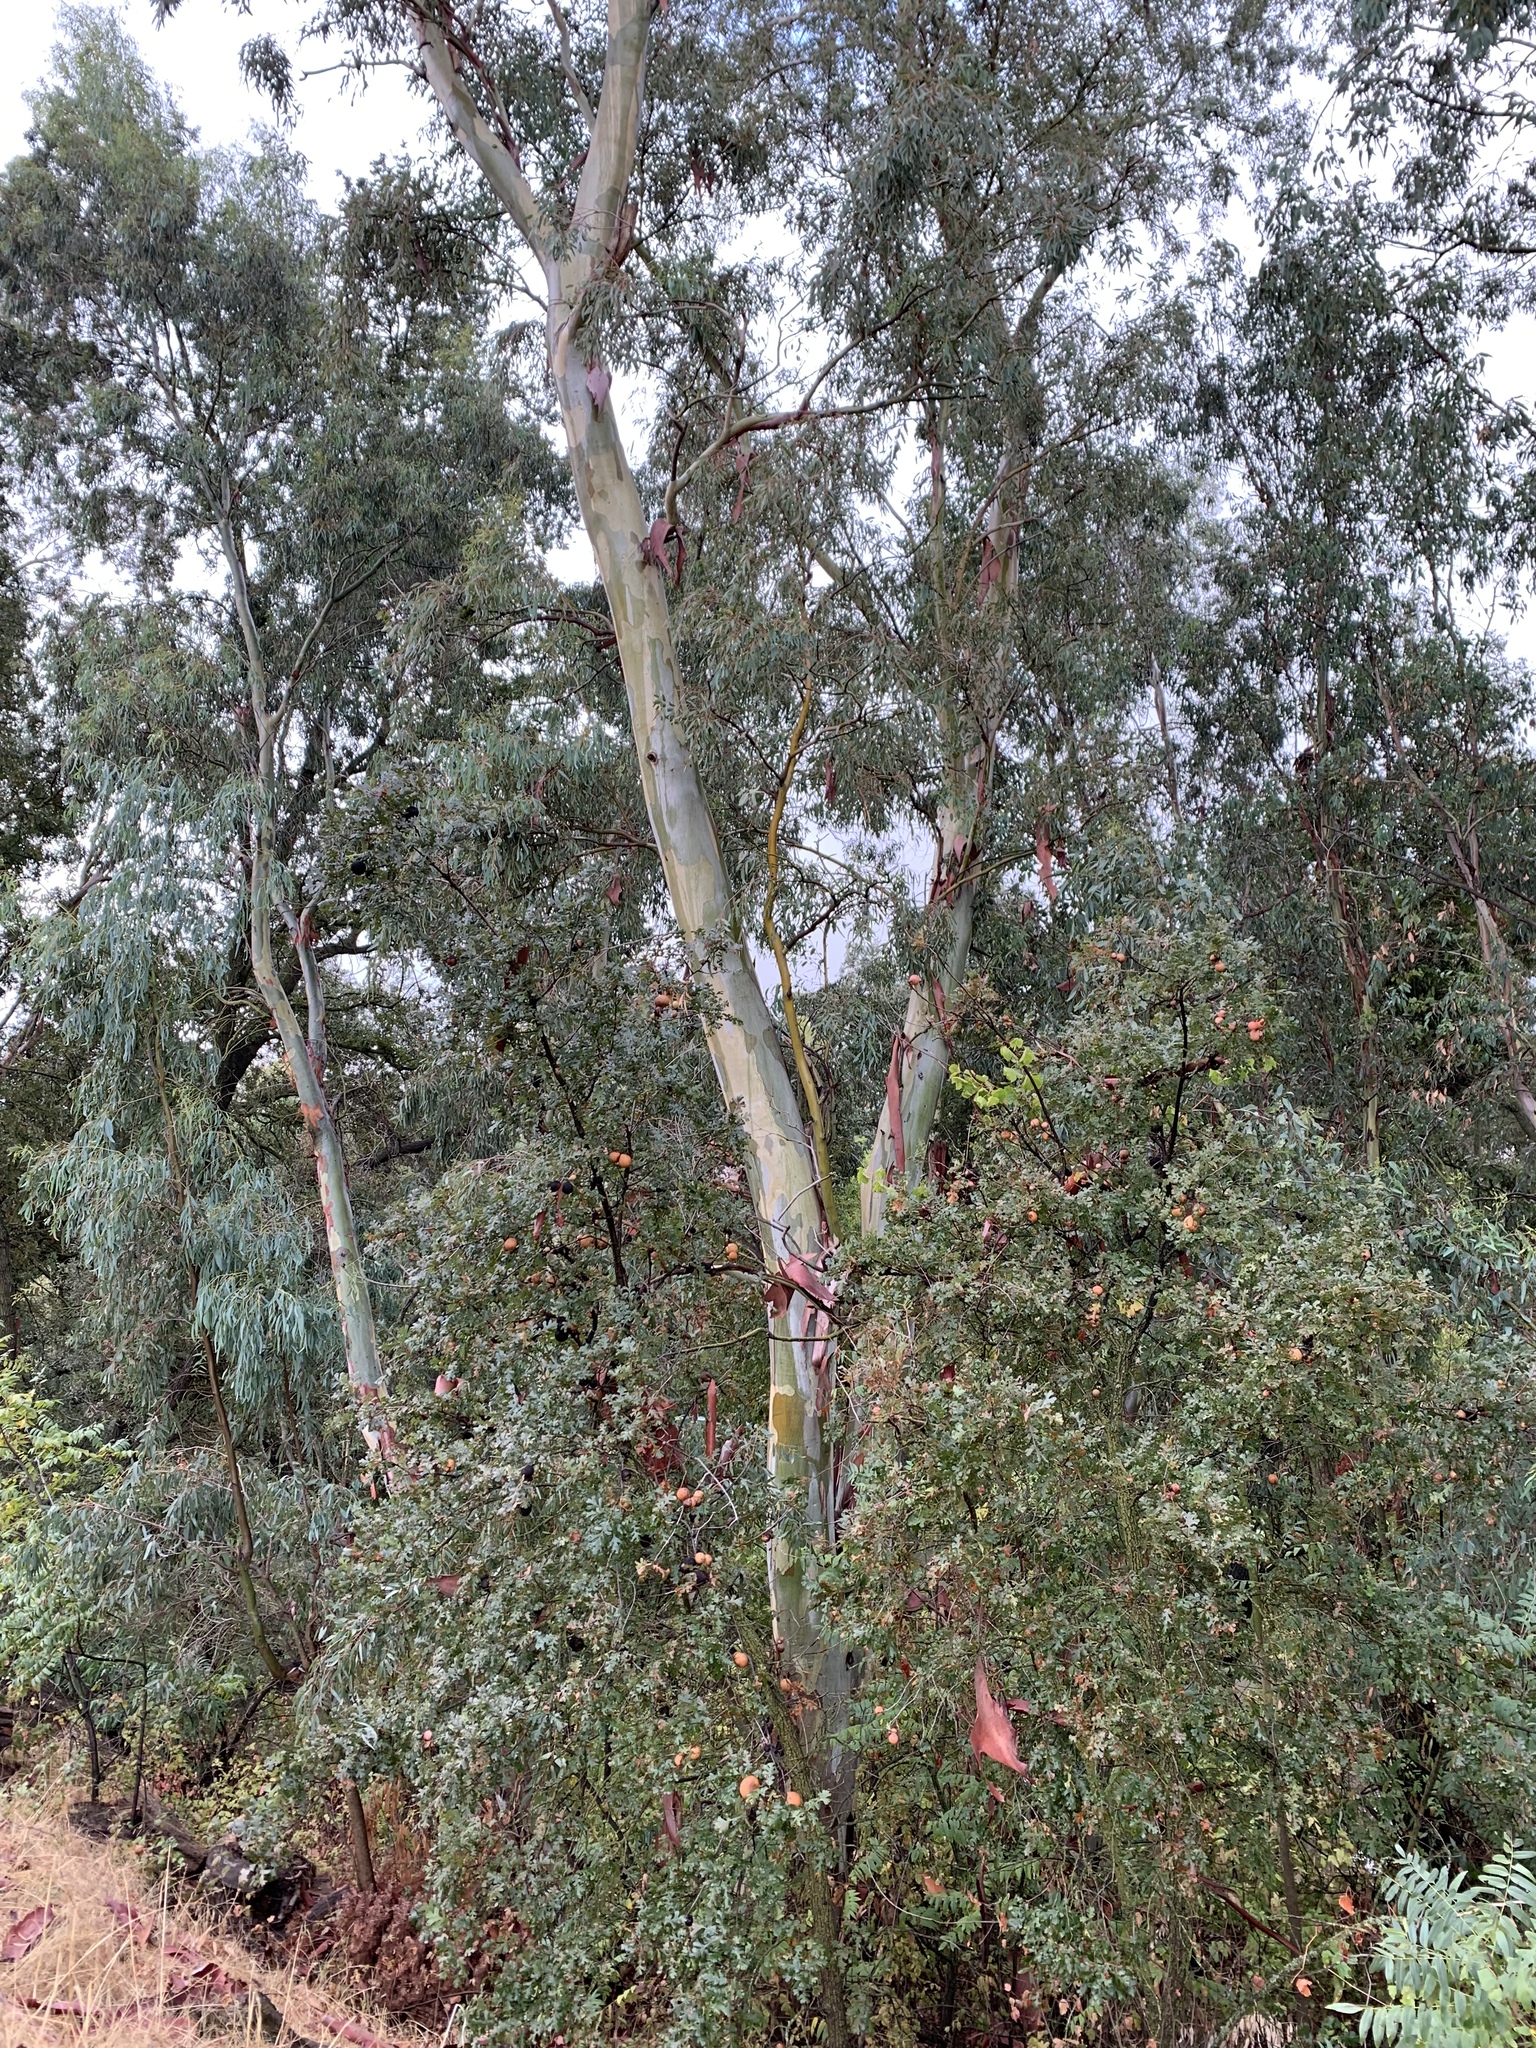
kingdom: Plantae
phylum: Tracheophyta
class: Magnoliopsida
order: Myrtales
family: Myrtaceae
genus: Eucalyptus
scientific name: Eucalyptus camaldulensis
